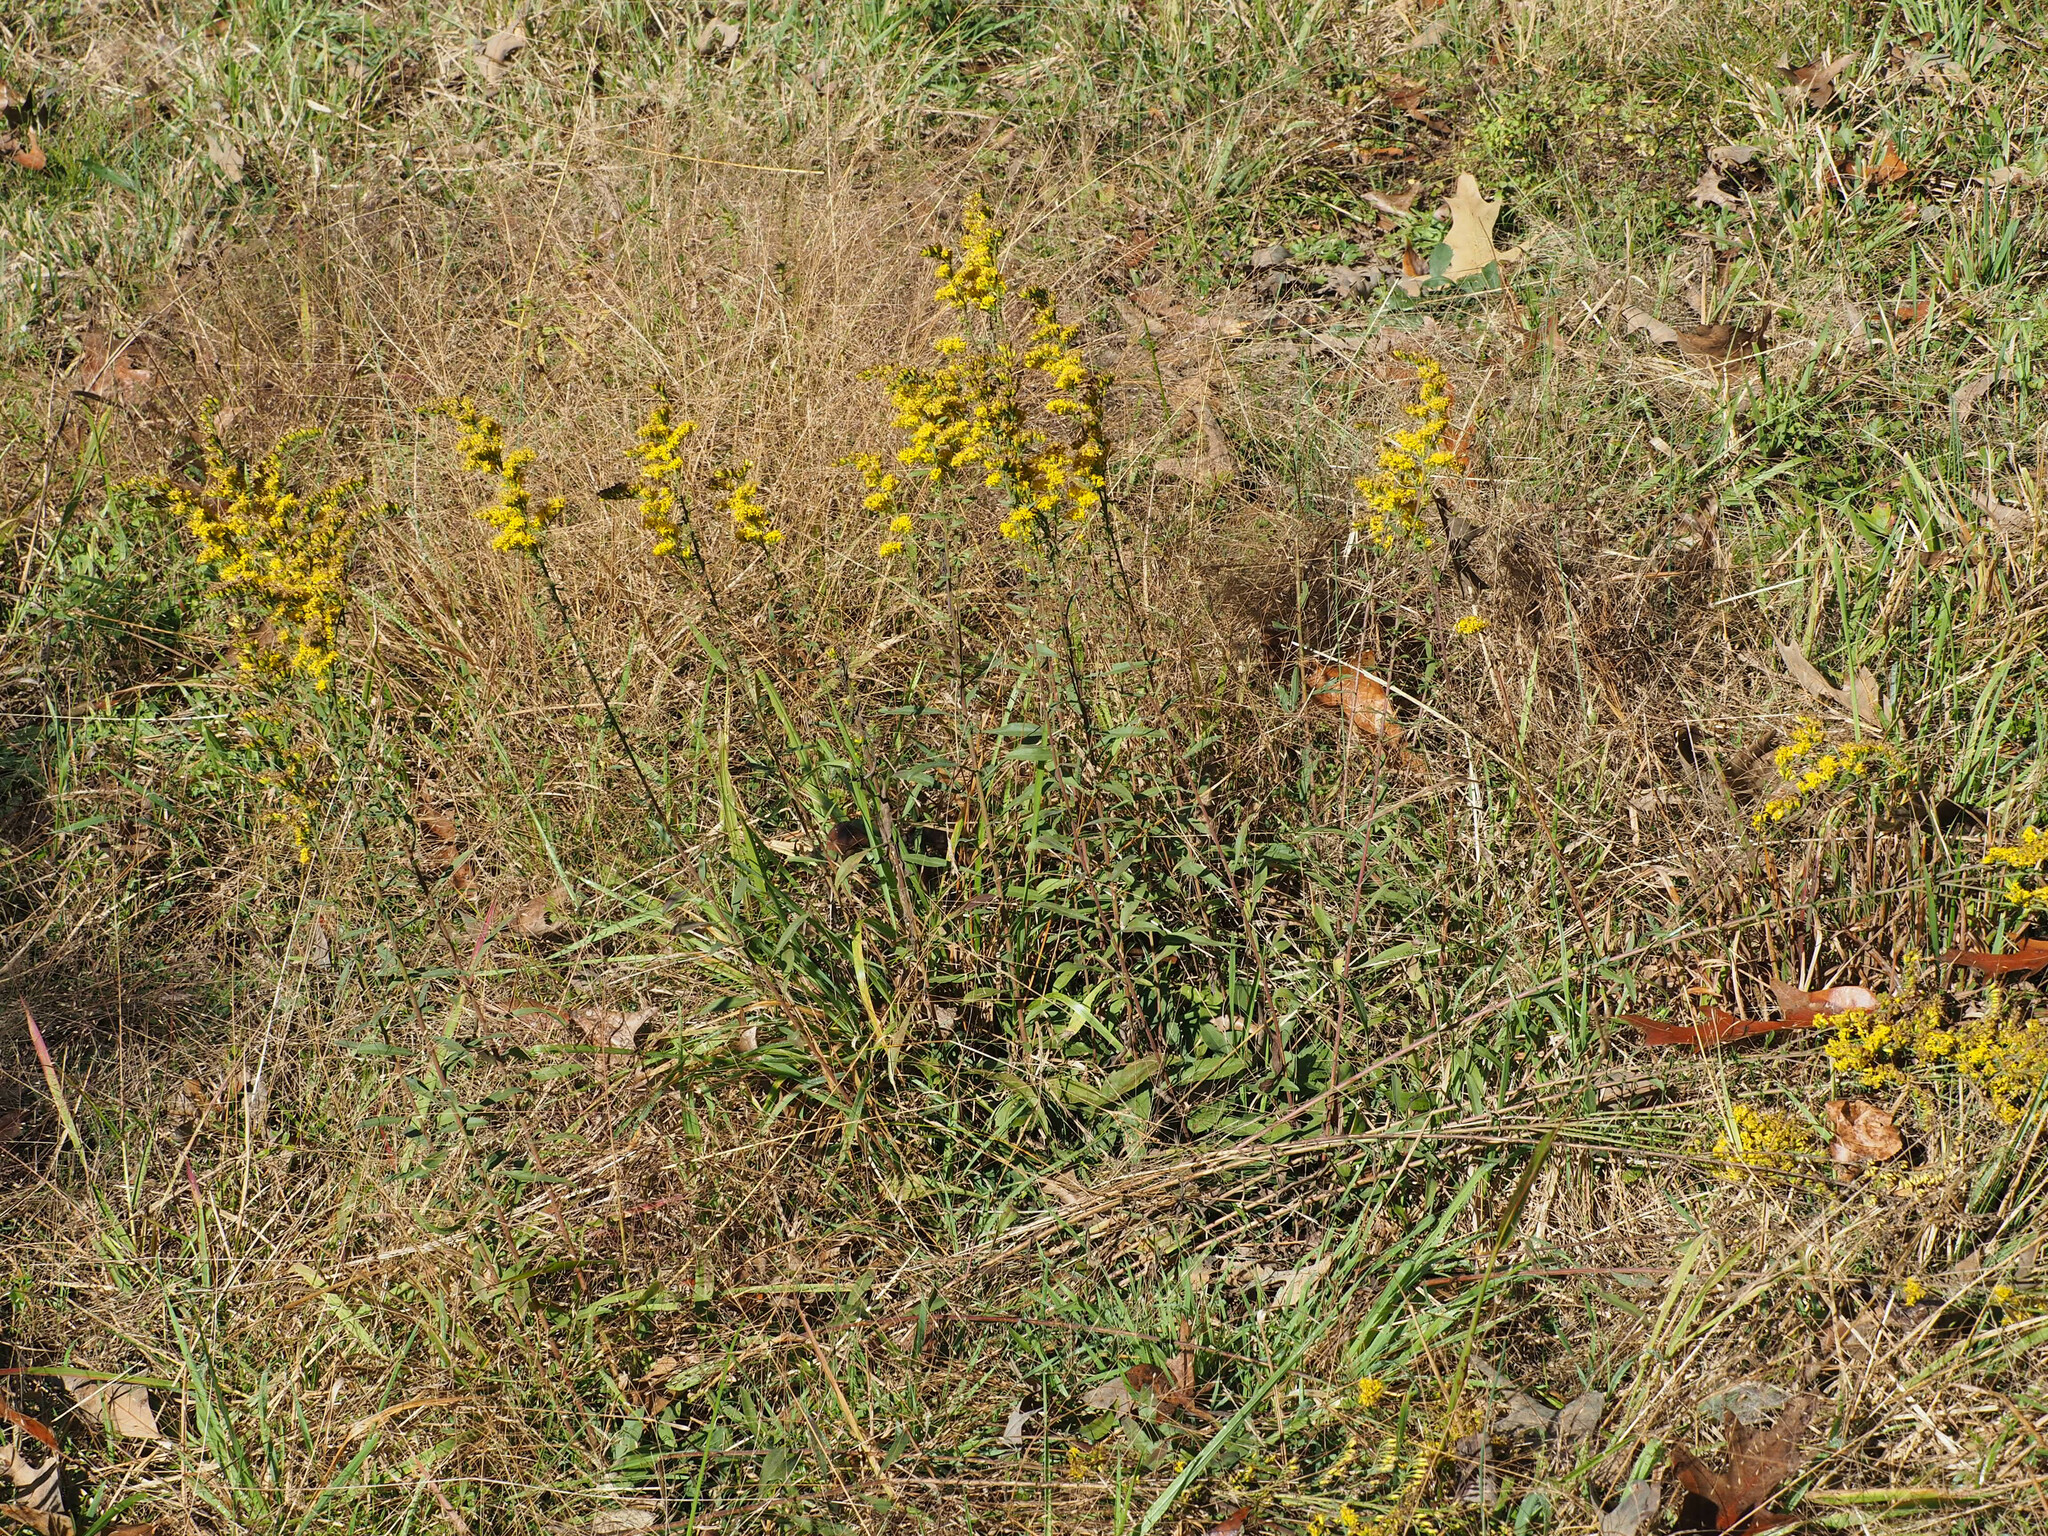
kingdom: Plantae
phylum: Tracheophyta
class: Magnoliopsida
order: Asterales
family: Asteraceae
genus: Solidago
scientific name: Solidago nemoralis
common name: Grey goldenrod
